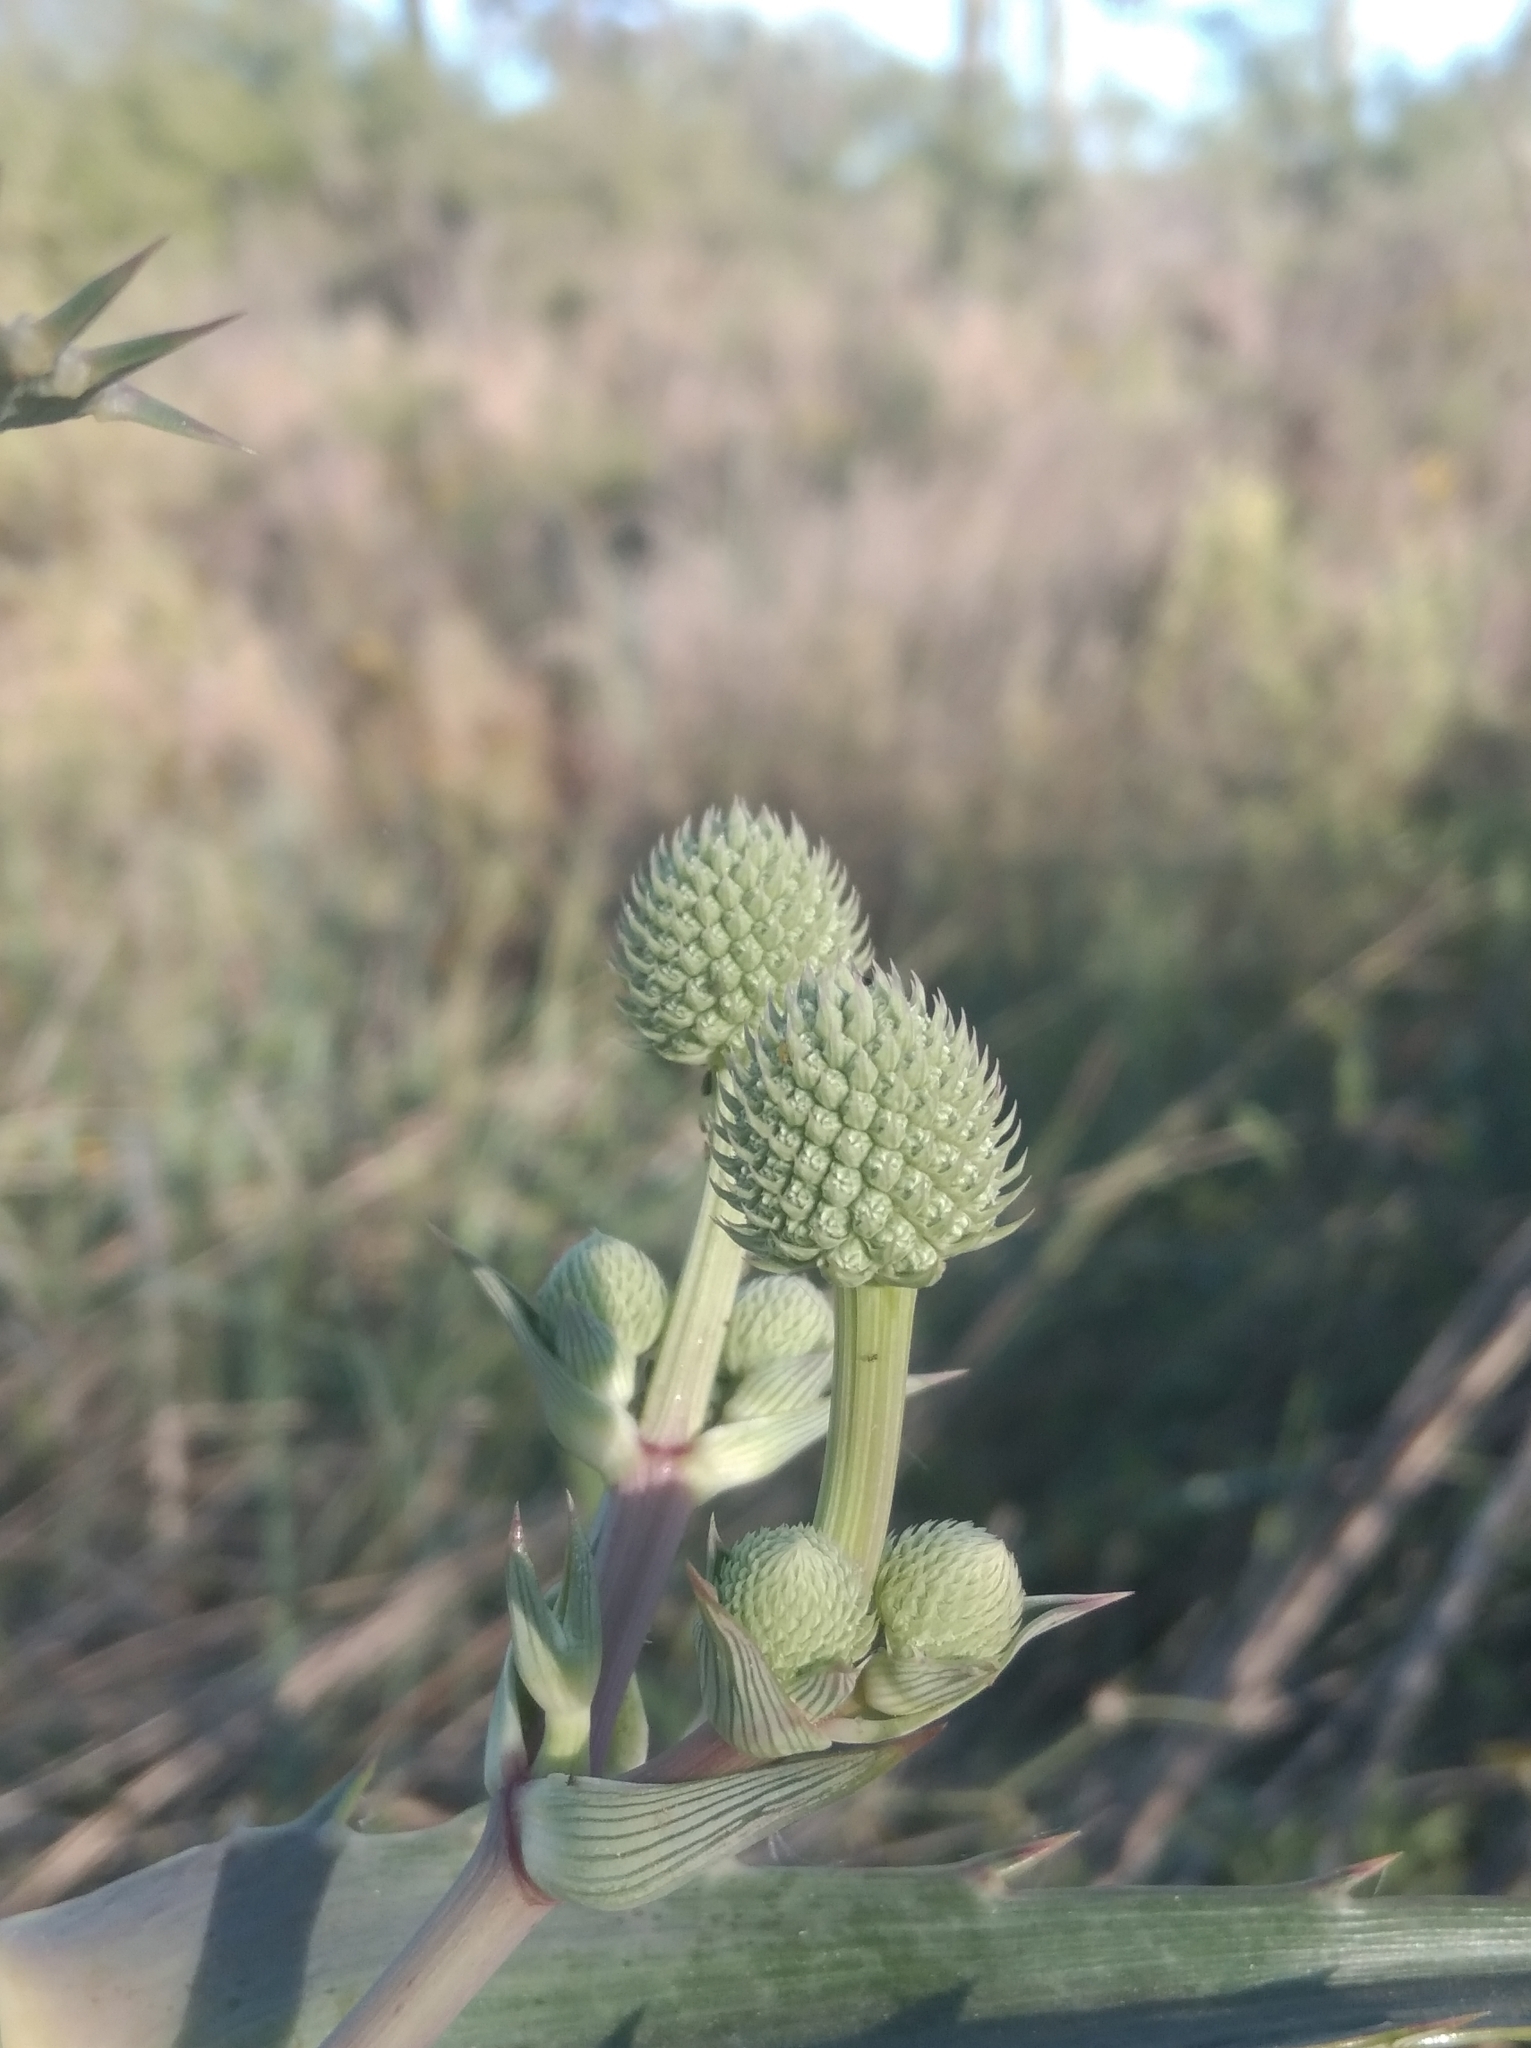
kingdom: Plantae
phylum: Tracheophyta
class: Magnoliopsida
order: Apiales
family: Apiaceae
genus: Eryngium
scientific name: Eryngium horridum
